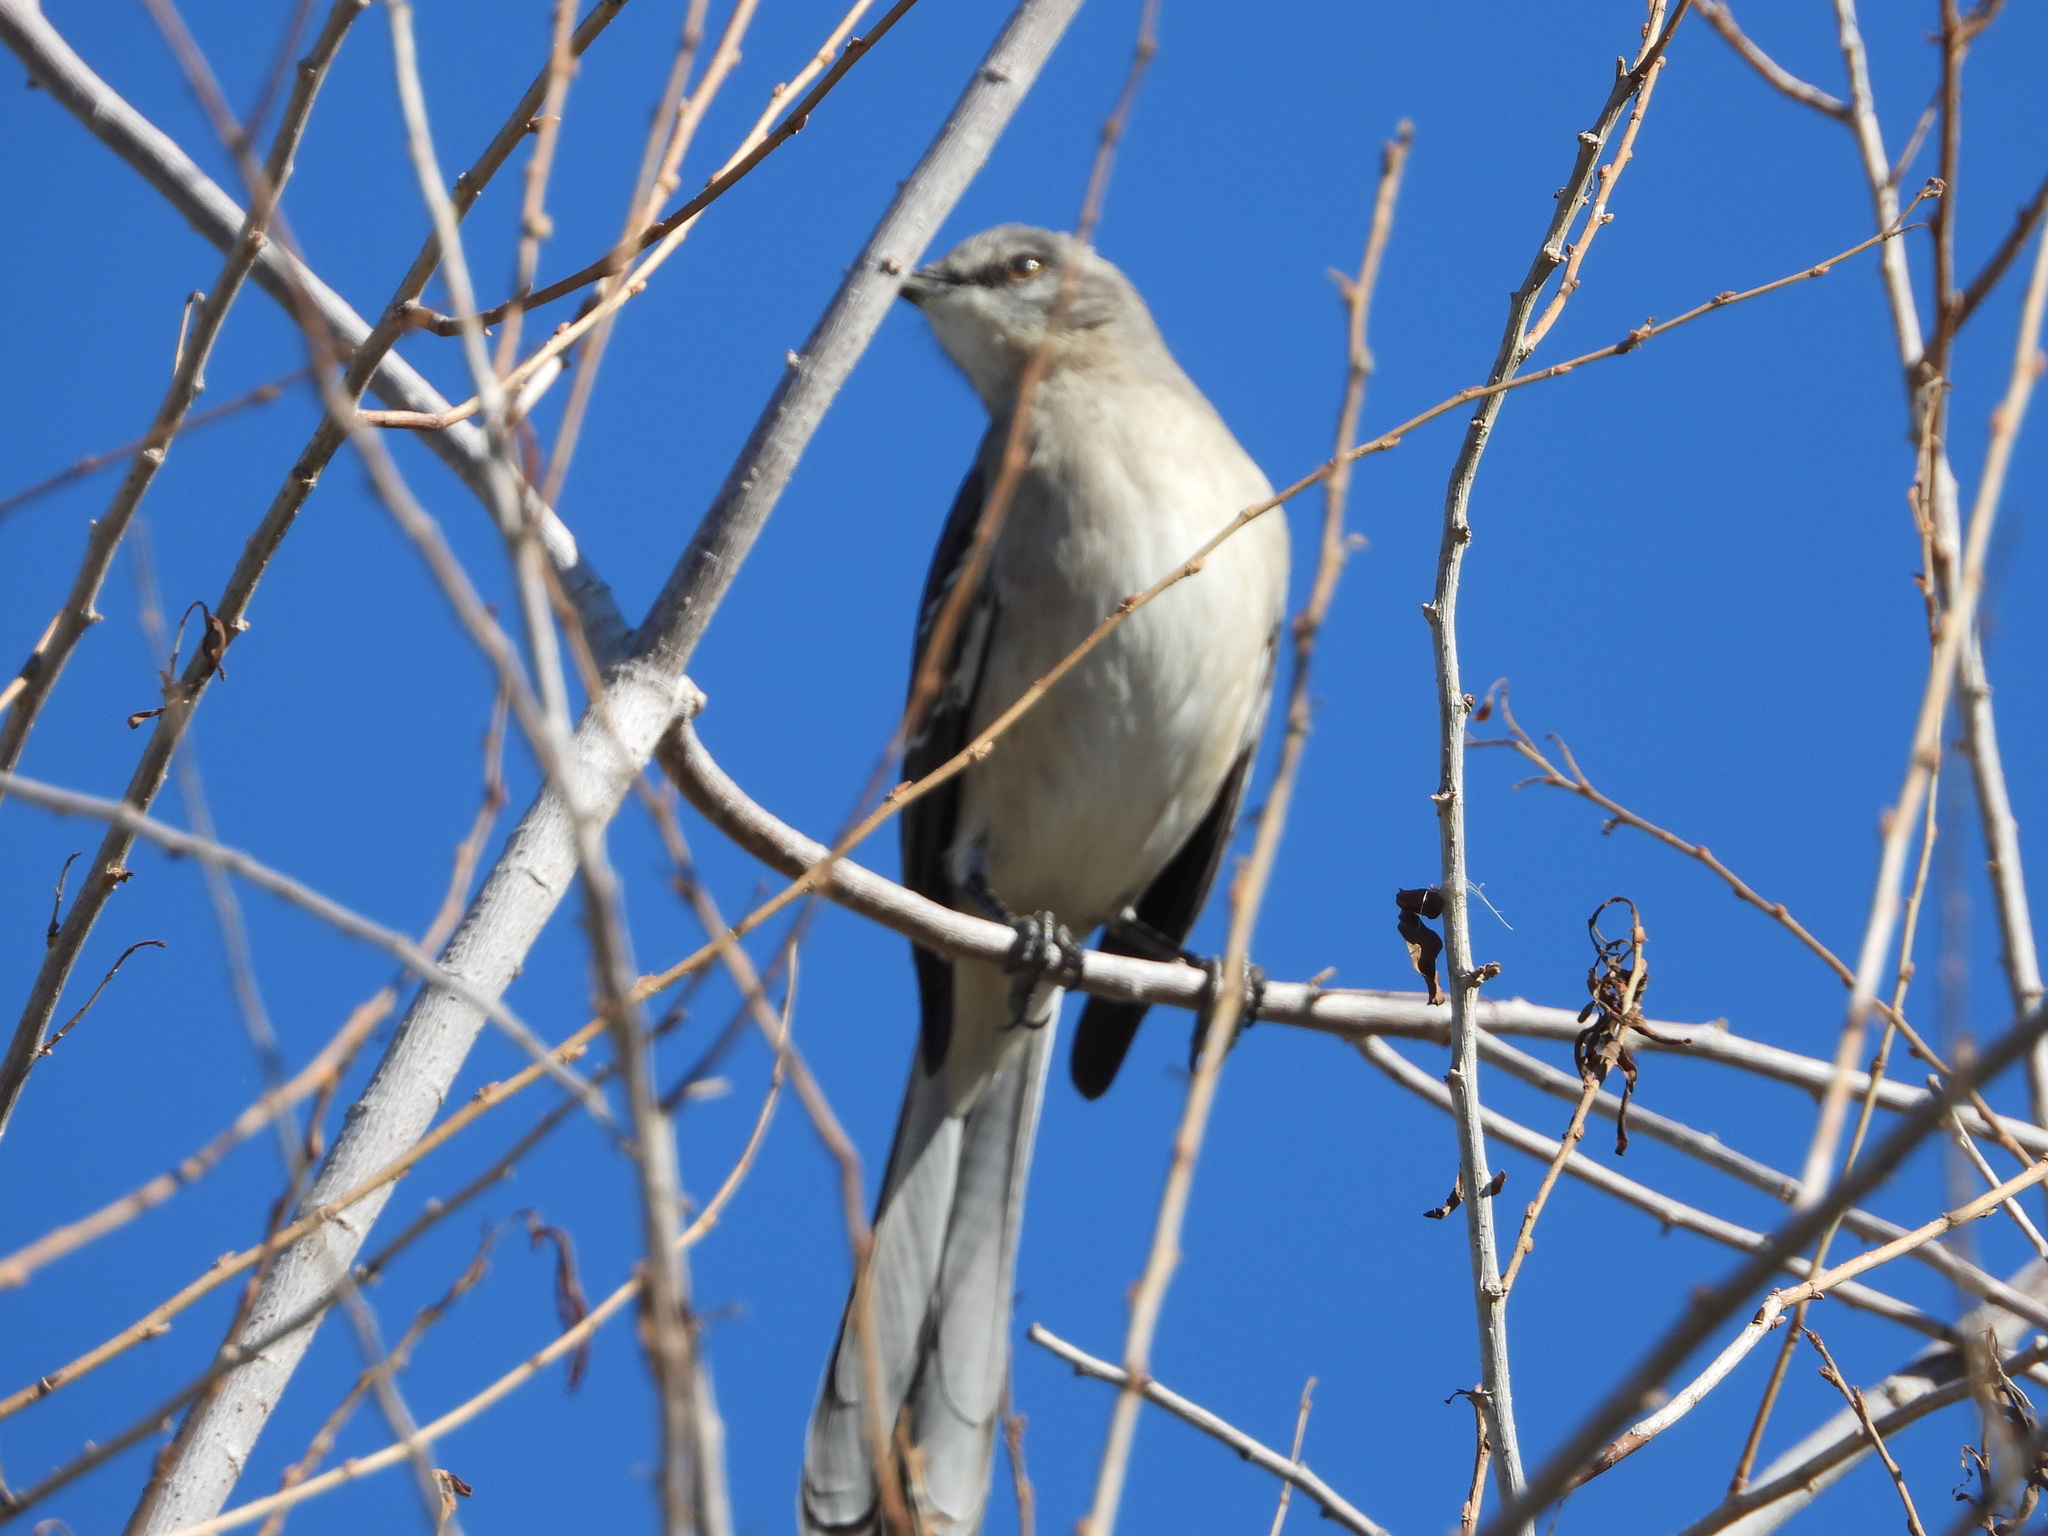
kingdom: Animalia
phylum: Chordata
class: Aves
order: Passeriformes
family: Mimidae
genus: Mimus
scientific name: Mimus polyglottos
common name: Northern mockingbird
